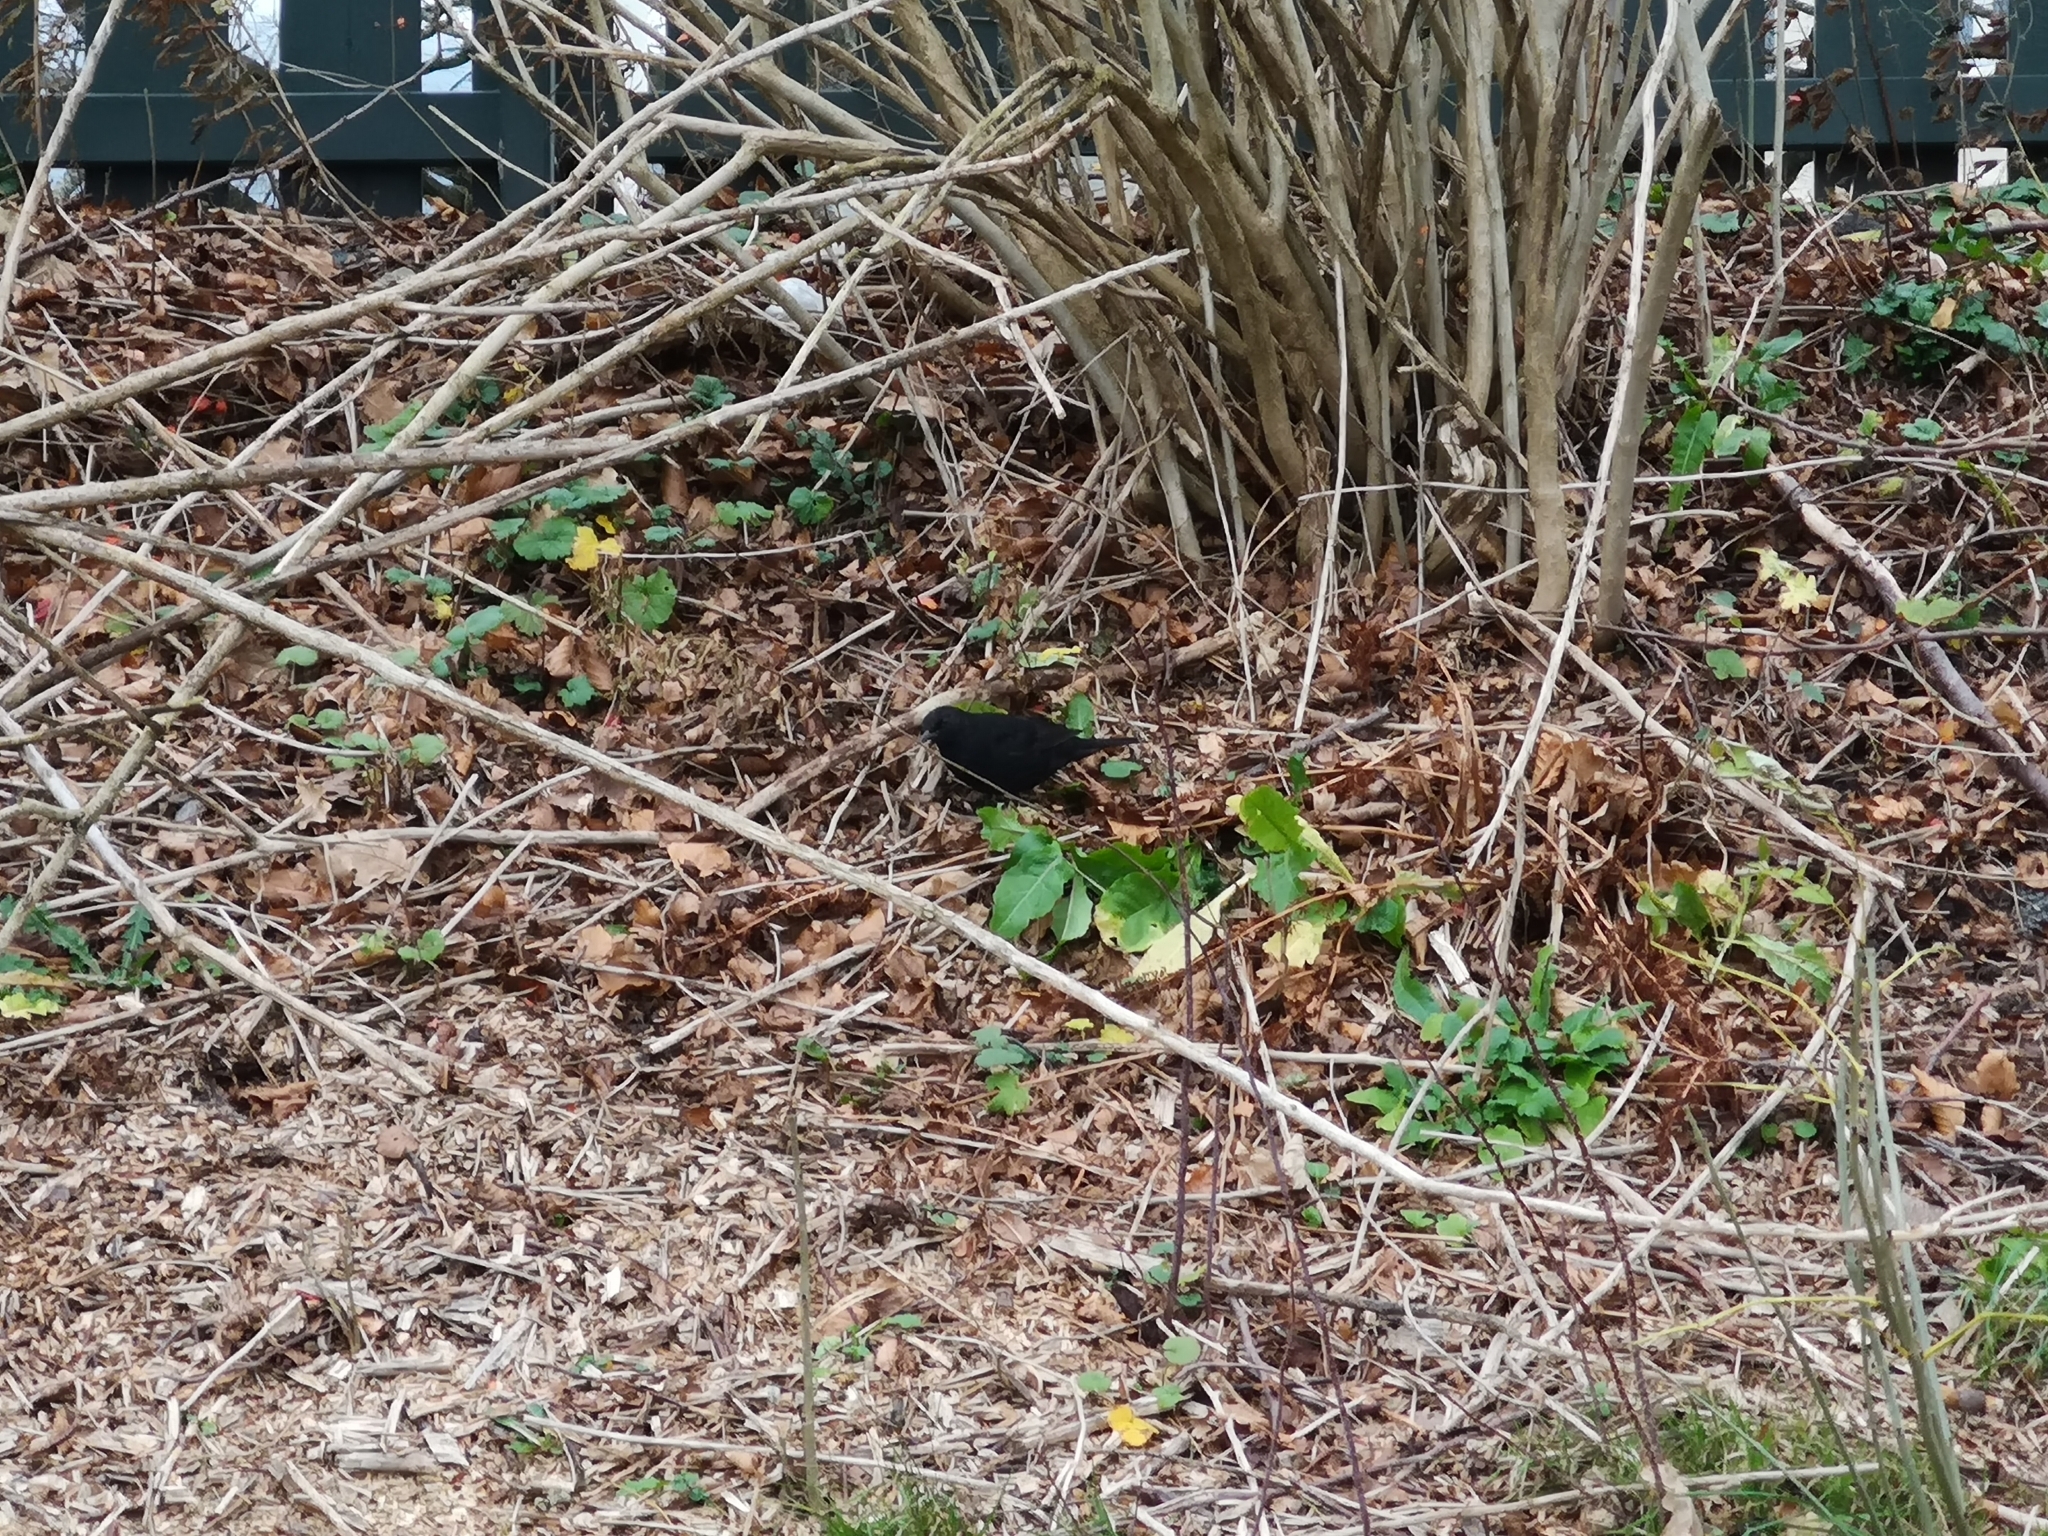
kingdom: Animalia
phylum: Chordata
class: Aves
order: Passeriformes
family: Turdidae
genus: Turdus
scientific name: Turdus merula
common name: Common blackbird
